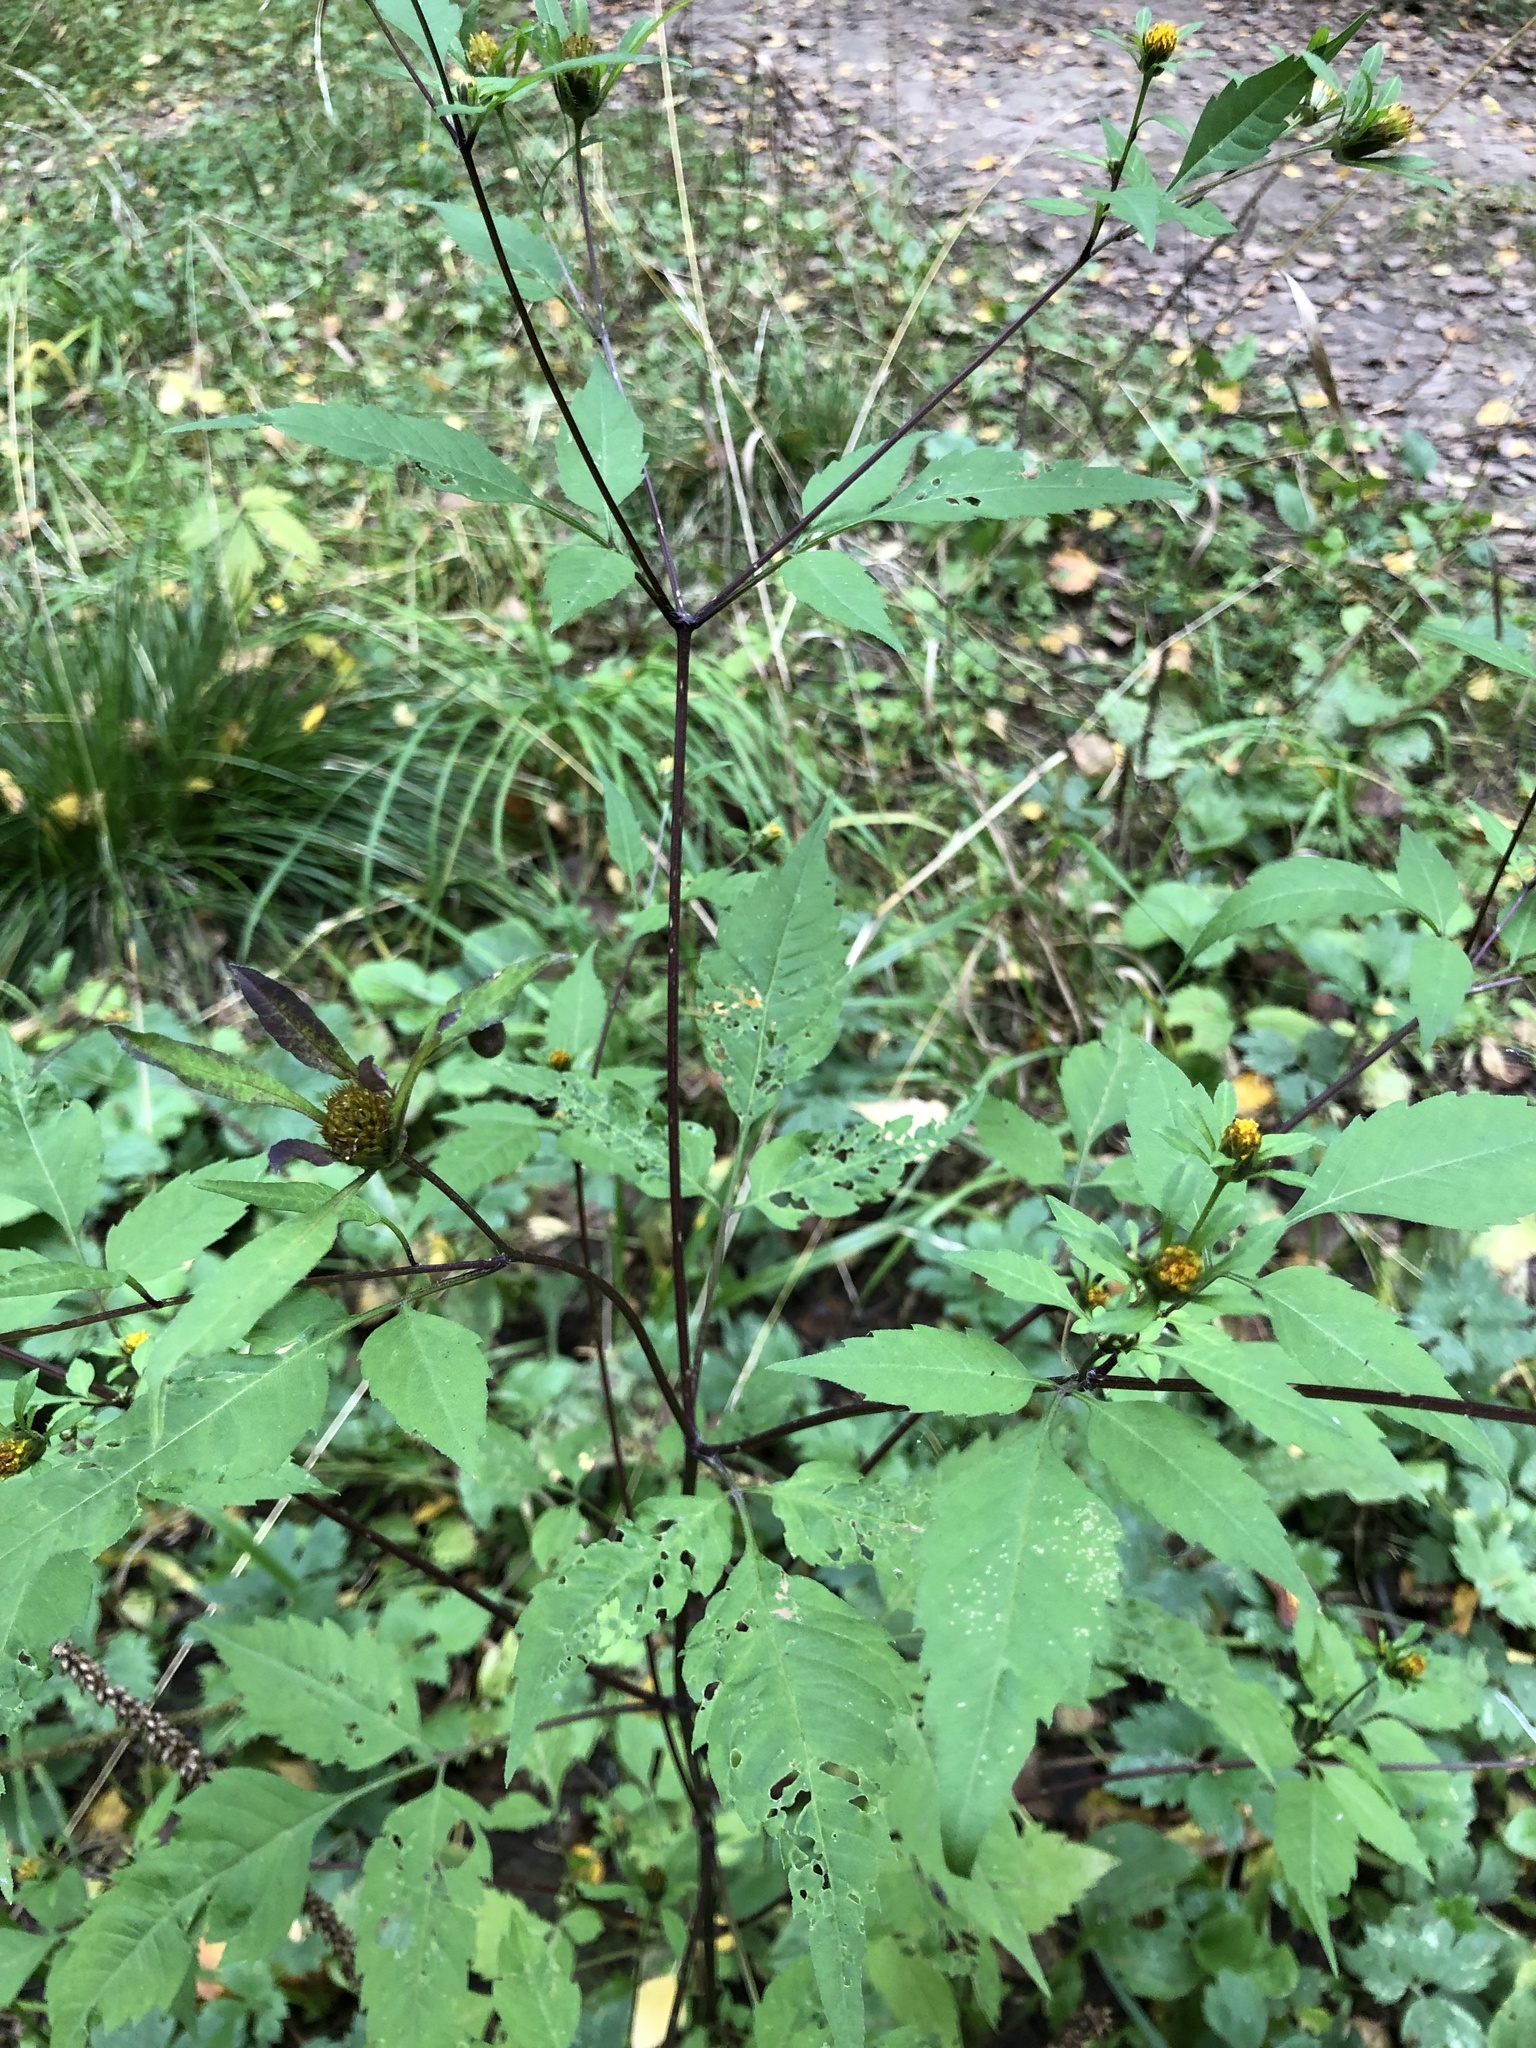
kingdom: Plantae
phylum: Tracheophyta
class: Magnoliopsida
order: Asterales
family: Asteraceae
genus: Bidens
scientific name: Bidens frondosa
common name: Beggarticks
